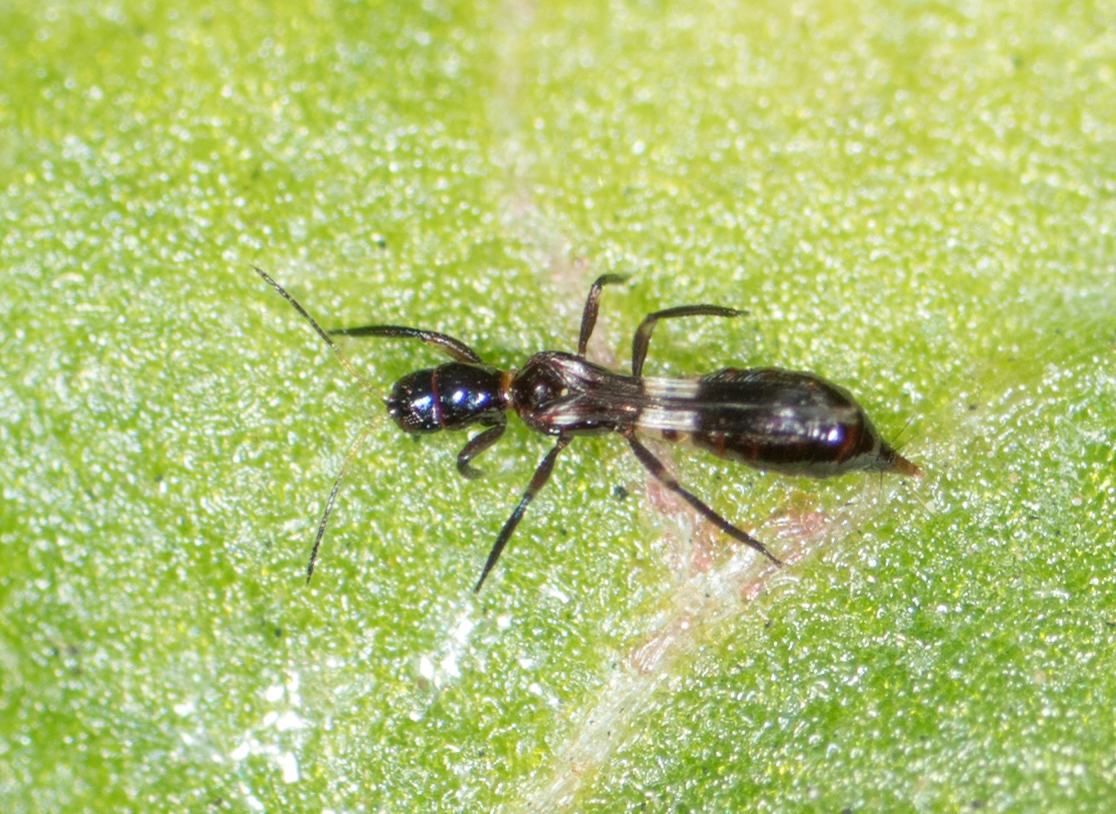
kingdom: Animalia
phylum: Arthropoda
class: Insecta
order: Thysanoptera
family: Aeolothripidae
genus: Franklinothrips
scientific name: Franklinothrips vespiformis
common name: Banded thrip
